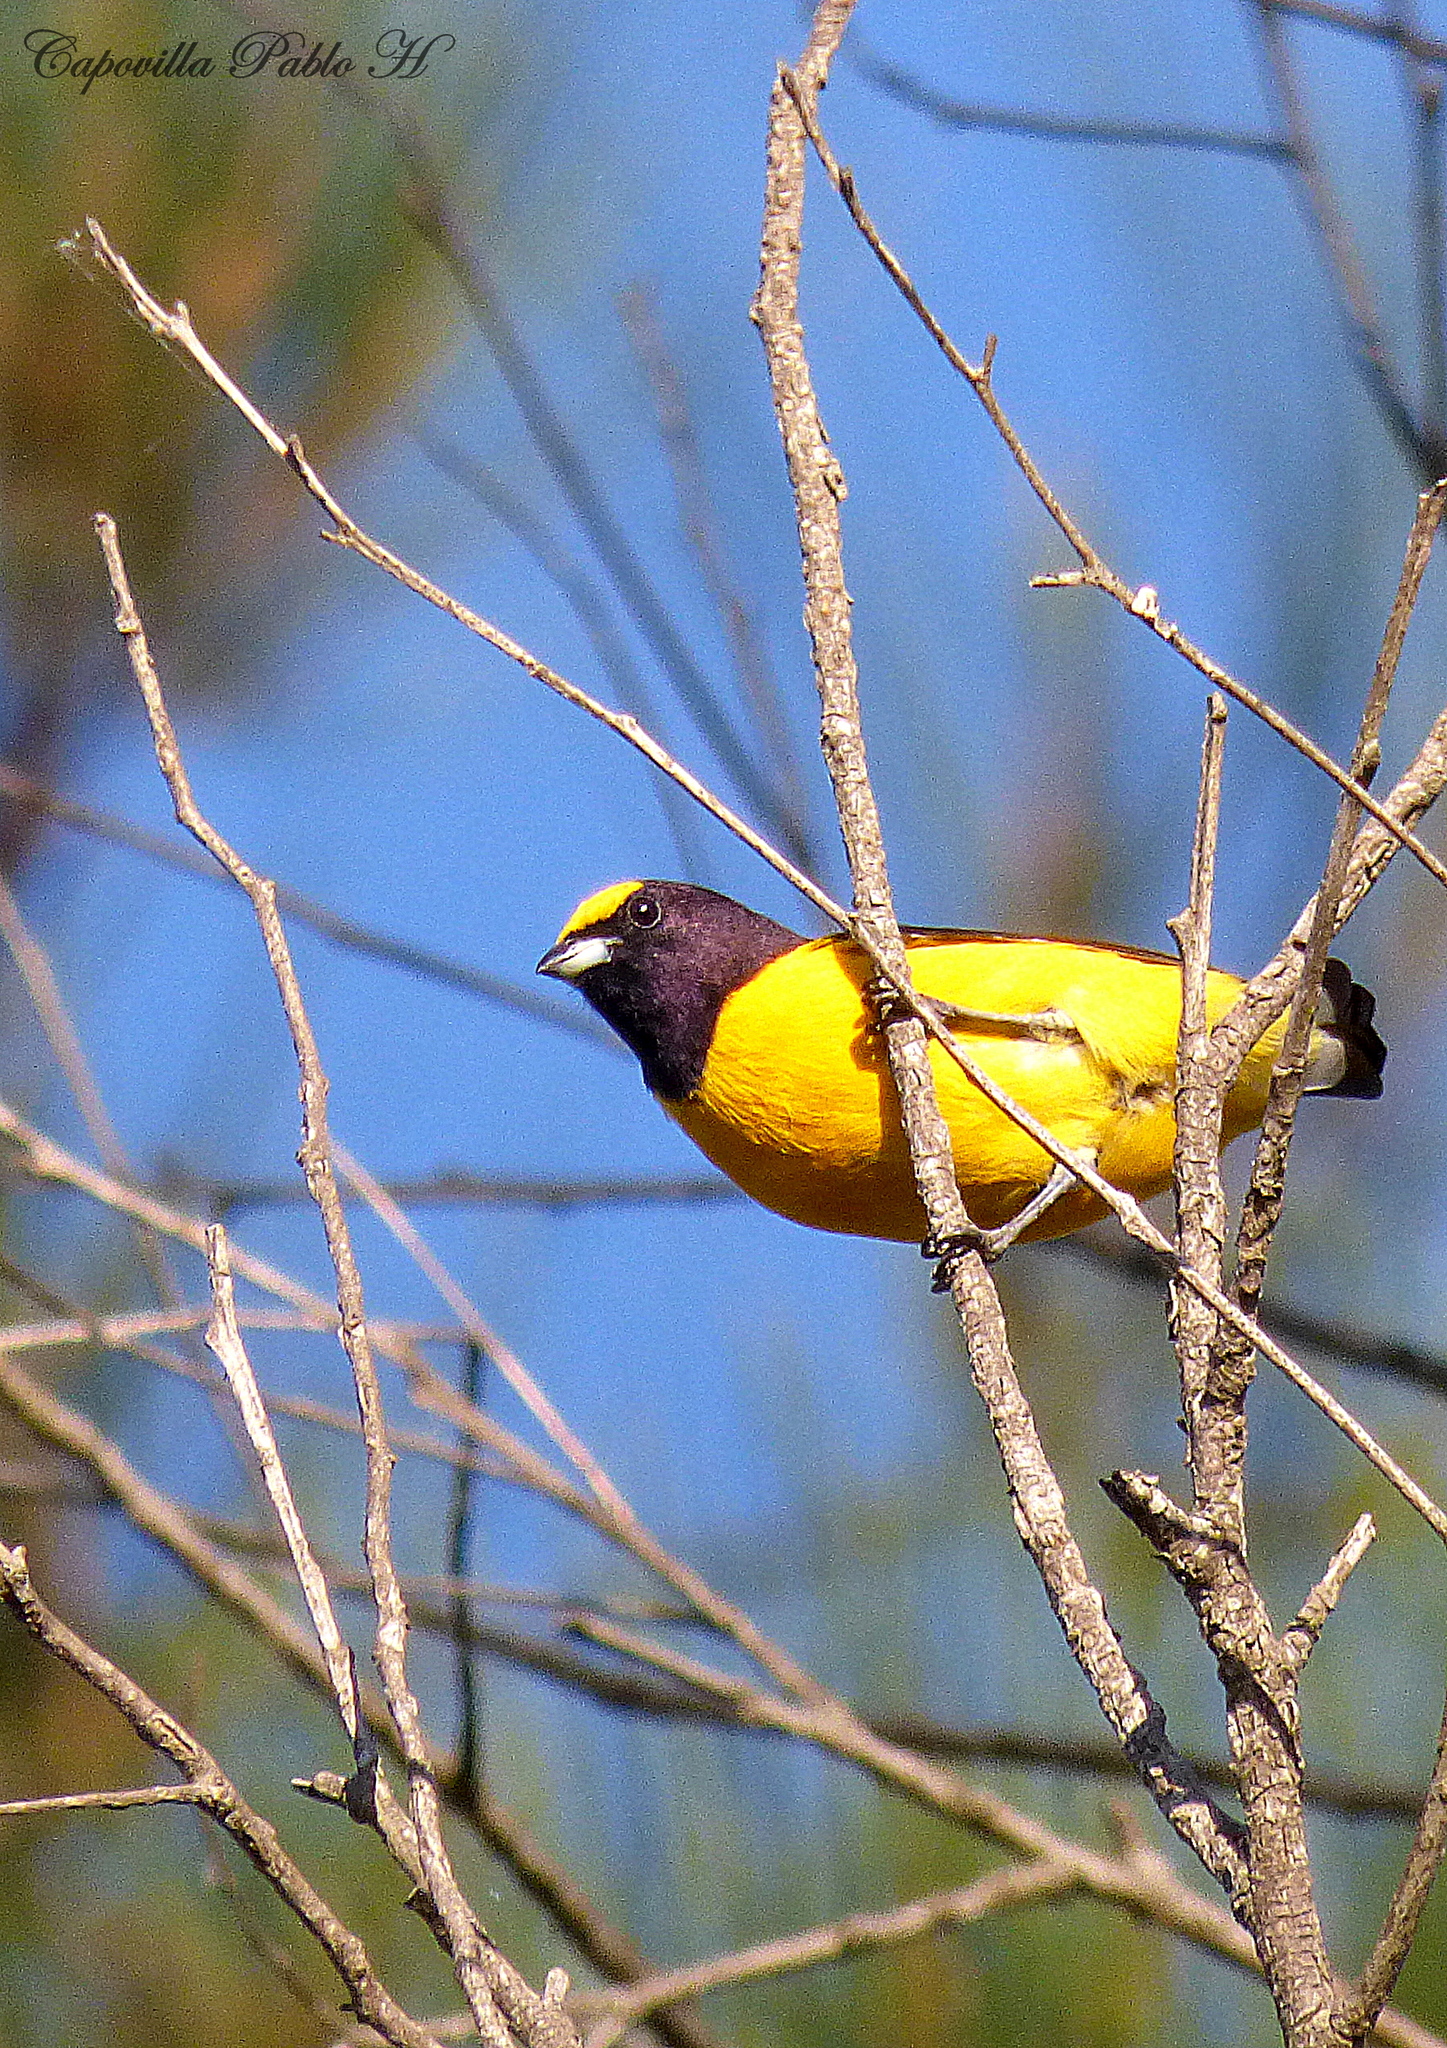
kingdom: Animalia
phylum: Chordata
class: Aves
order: Passeriformes
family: Fringillidae
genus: Euphonia
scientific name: Euphonia chlorotica
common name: Purple-throated euphonia
